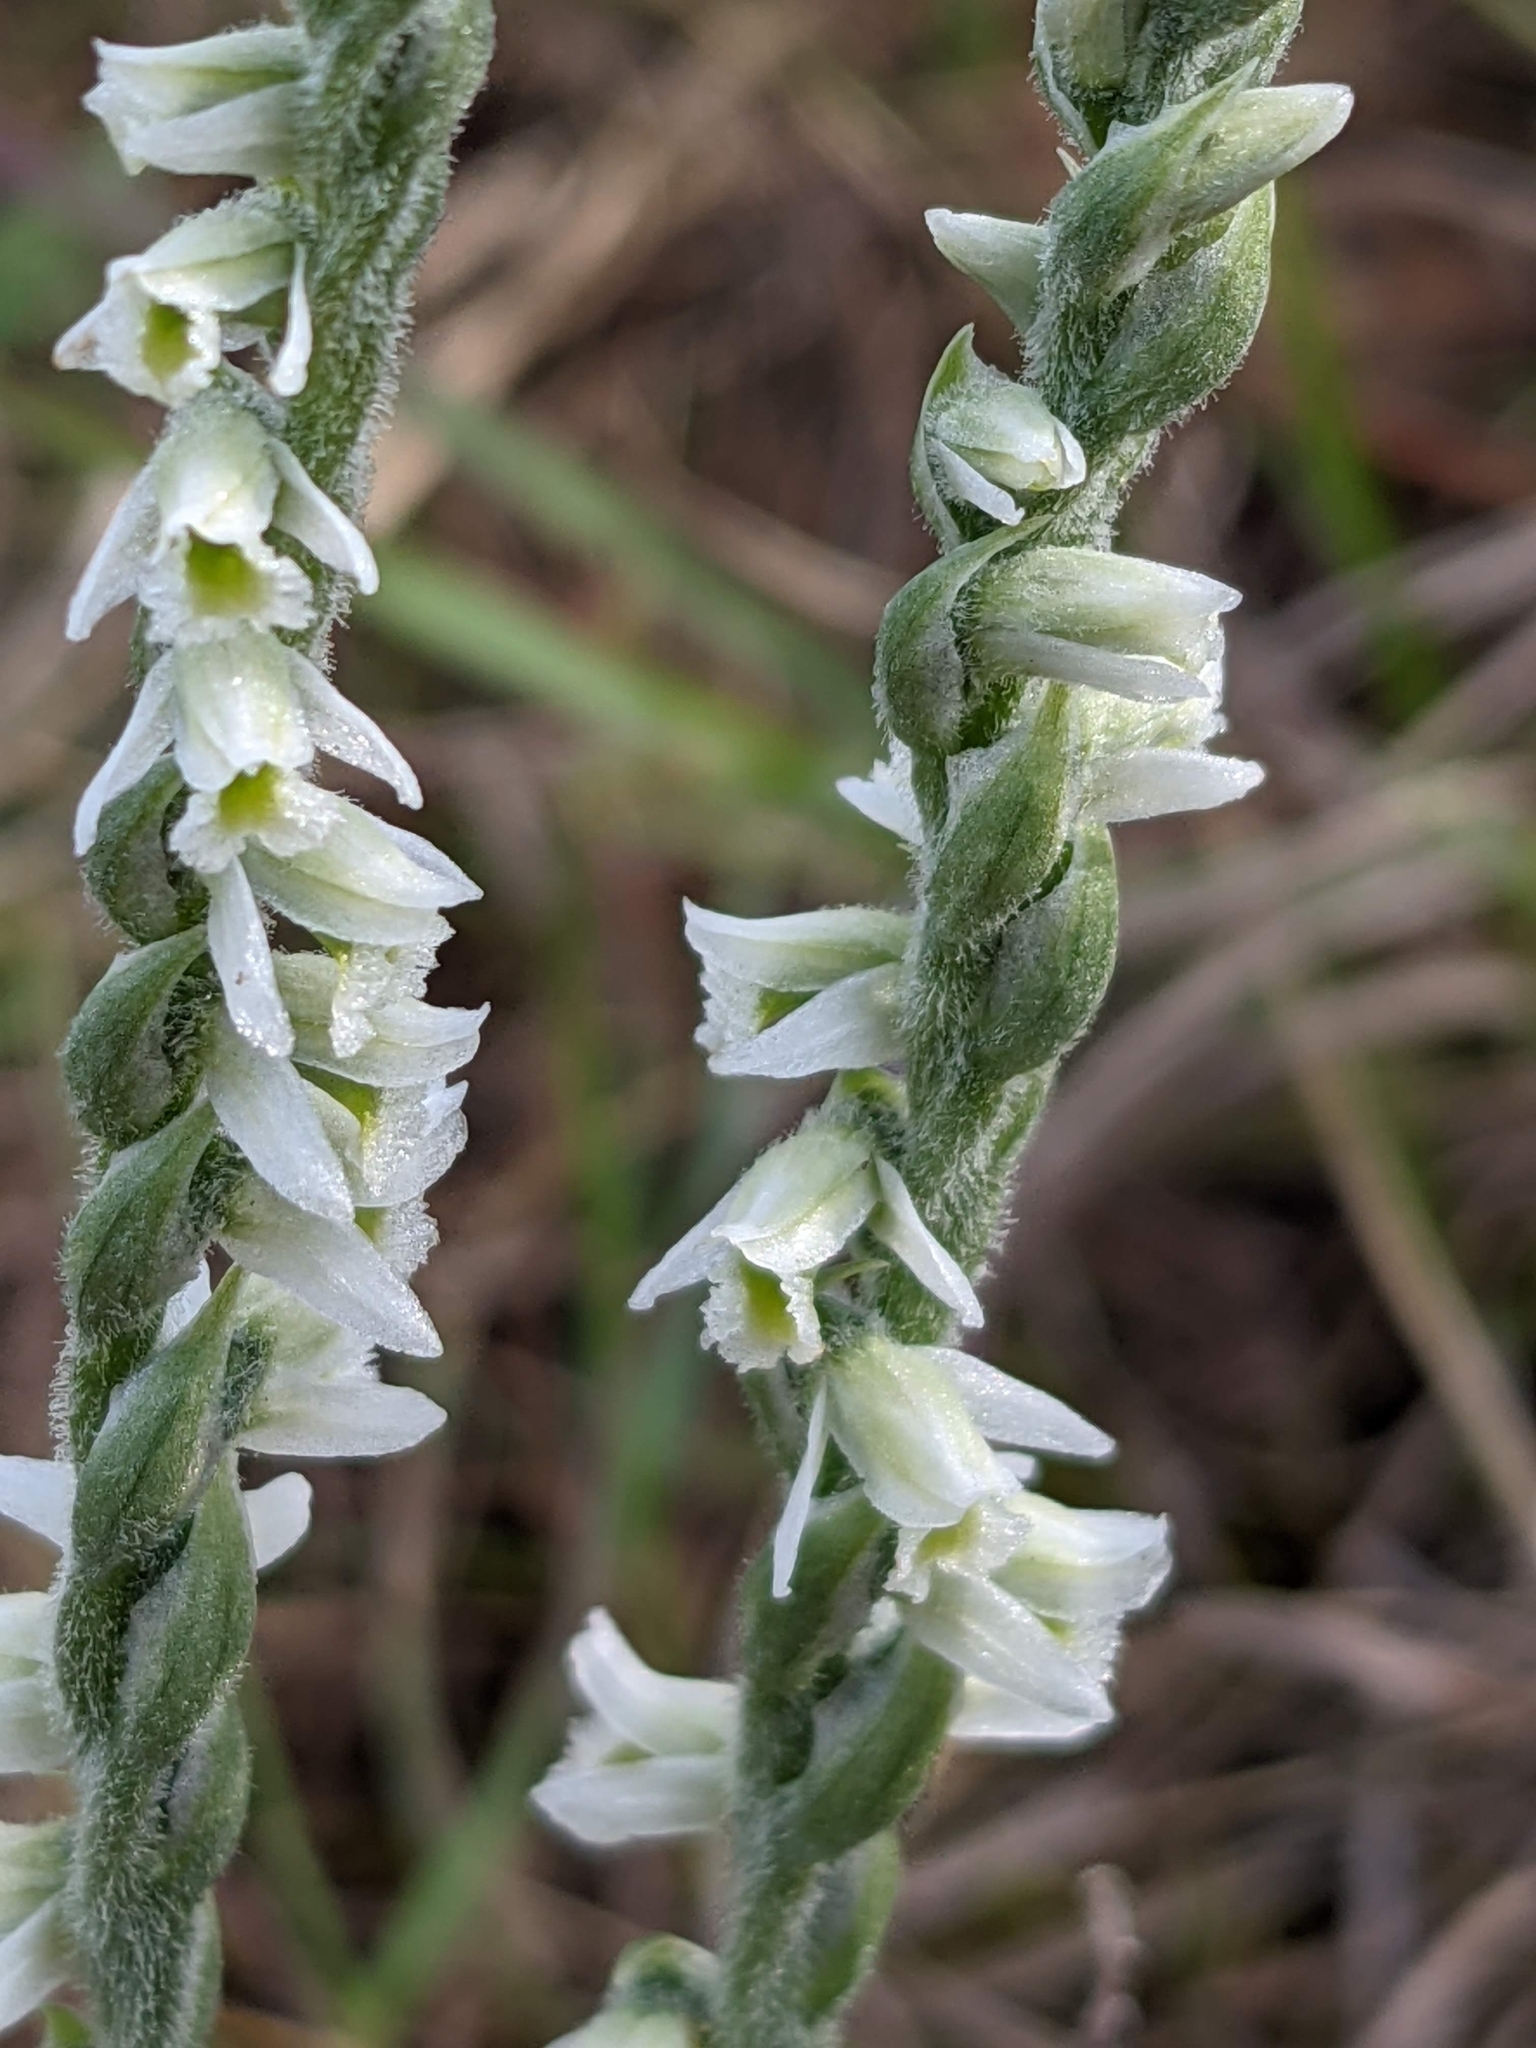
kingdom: Plantae
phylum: Tracheophyta
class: Liliopsida
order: Asparagales
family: Orchidaceae
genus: Spiranthes
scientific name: Spiranthes spiralis
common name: Autumn lady's-tresses
